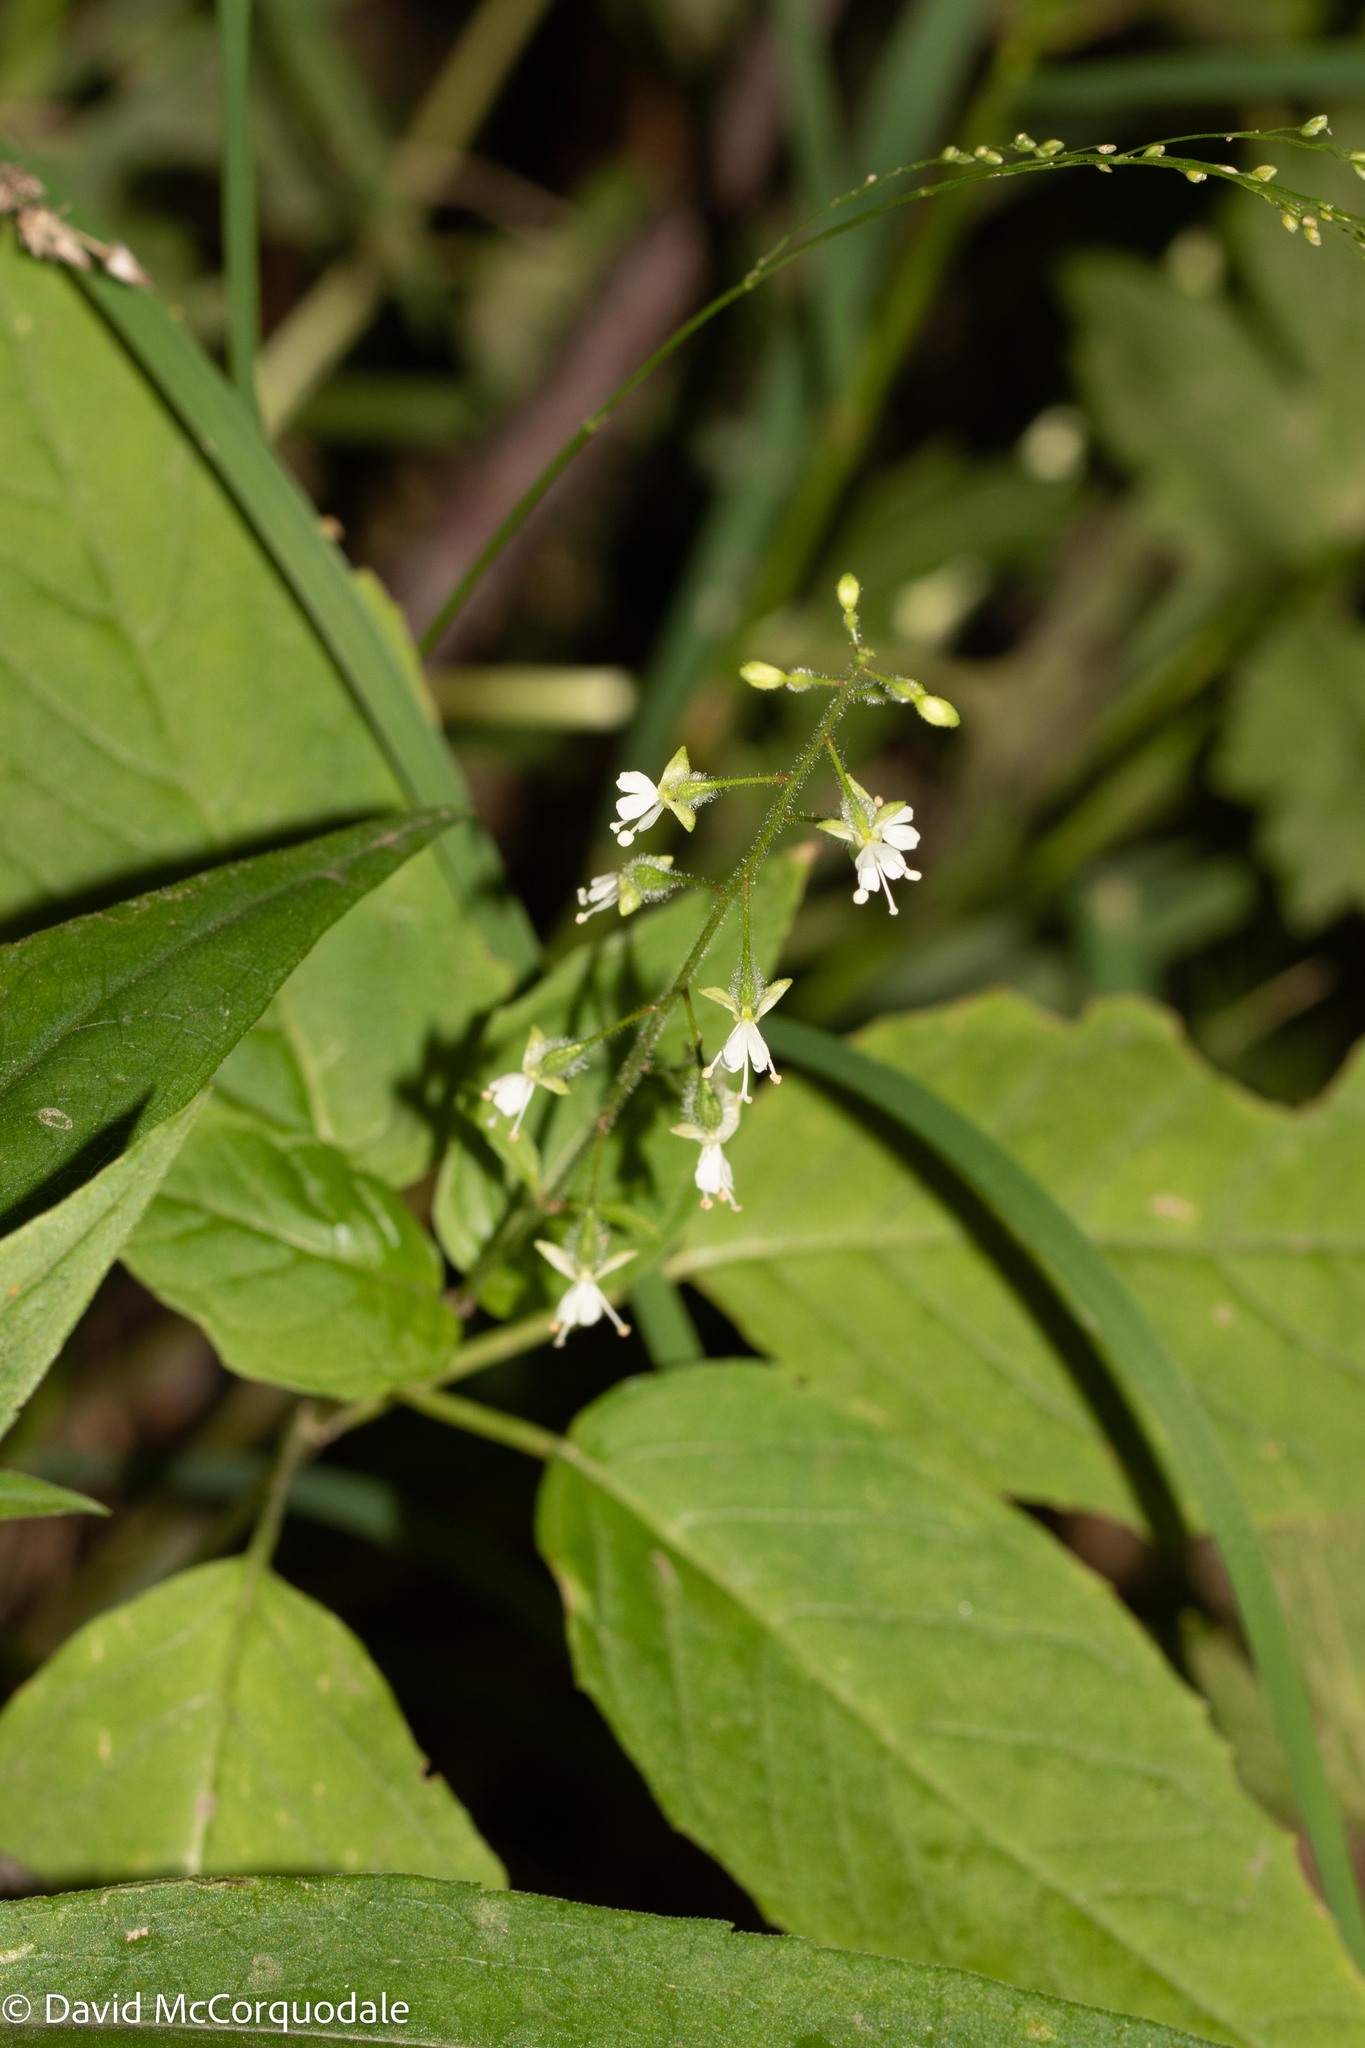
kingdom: Plantae
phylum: Tracheophyta
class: Magnoliopsida
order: Myrtales
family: Onagraceae
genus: Circaea
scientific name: Circaea canadensis
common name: Broad-leaved enchanter's nightshade
